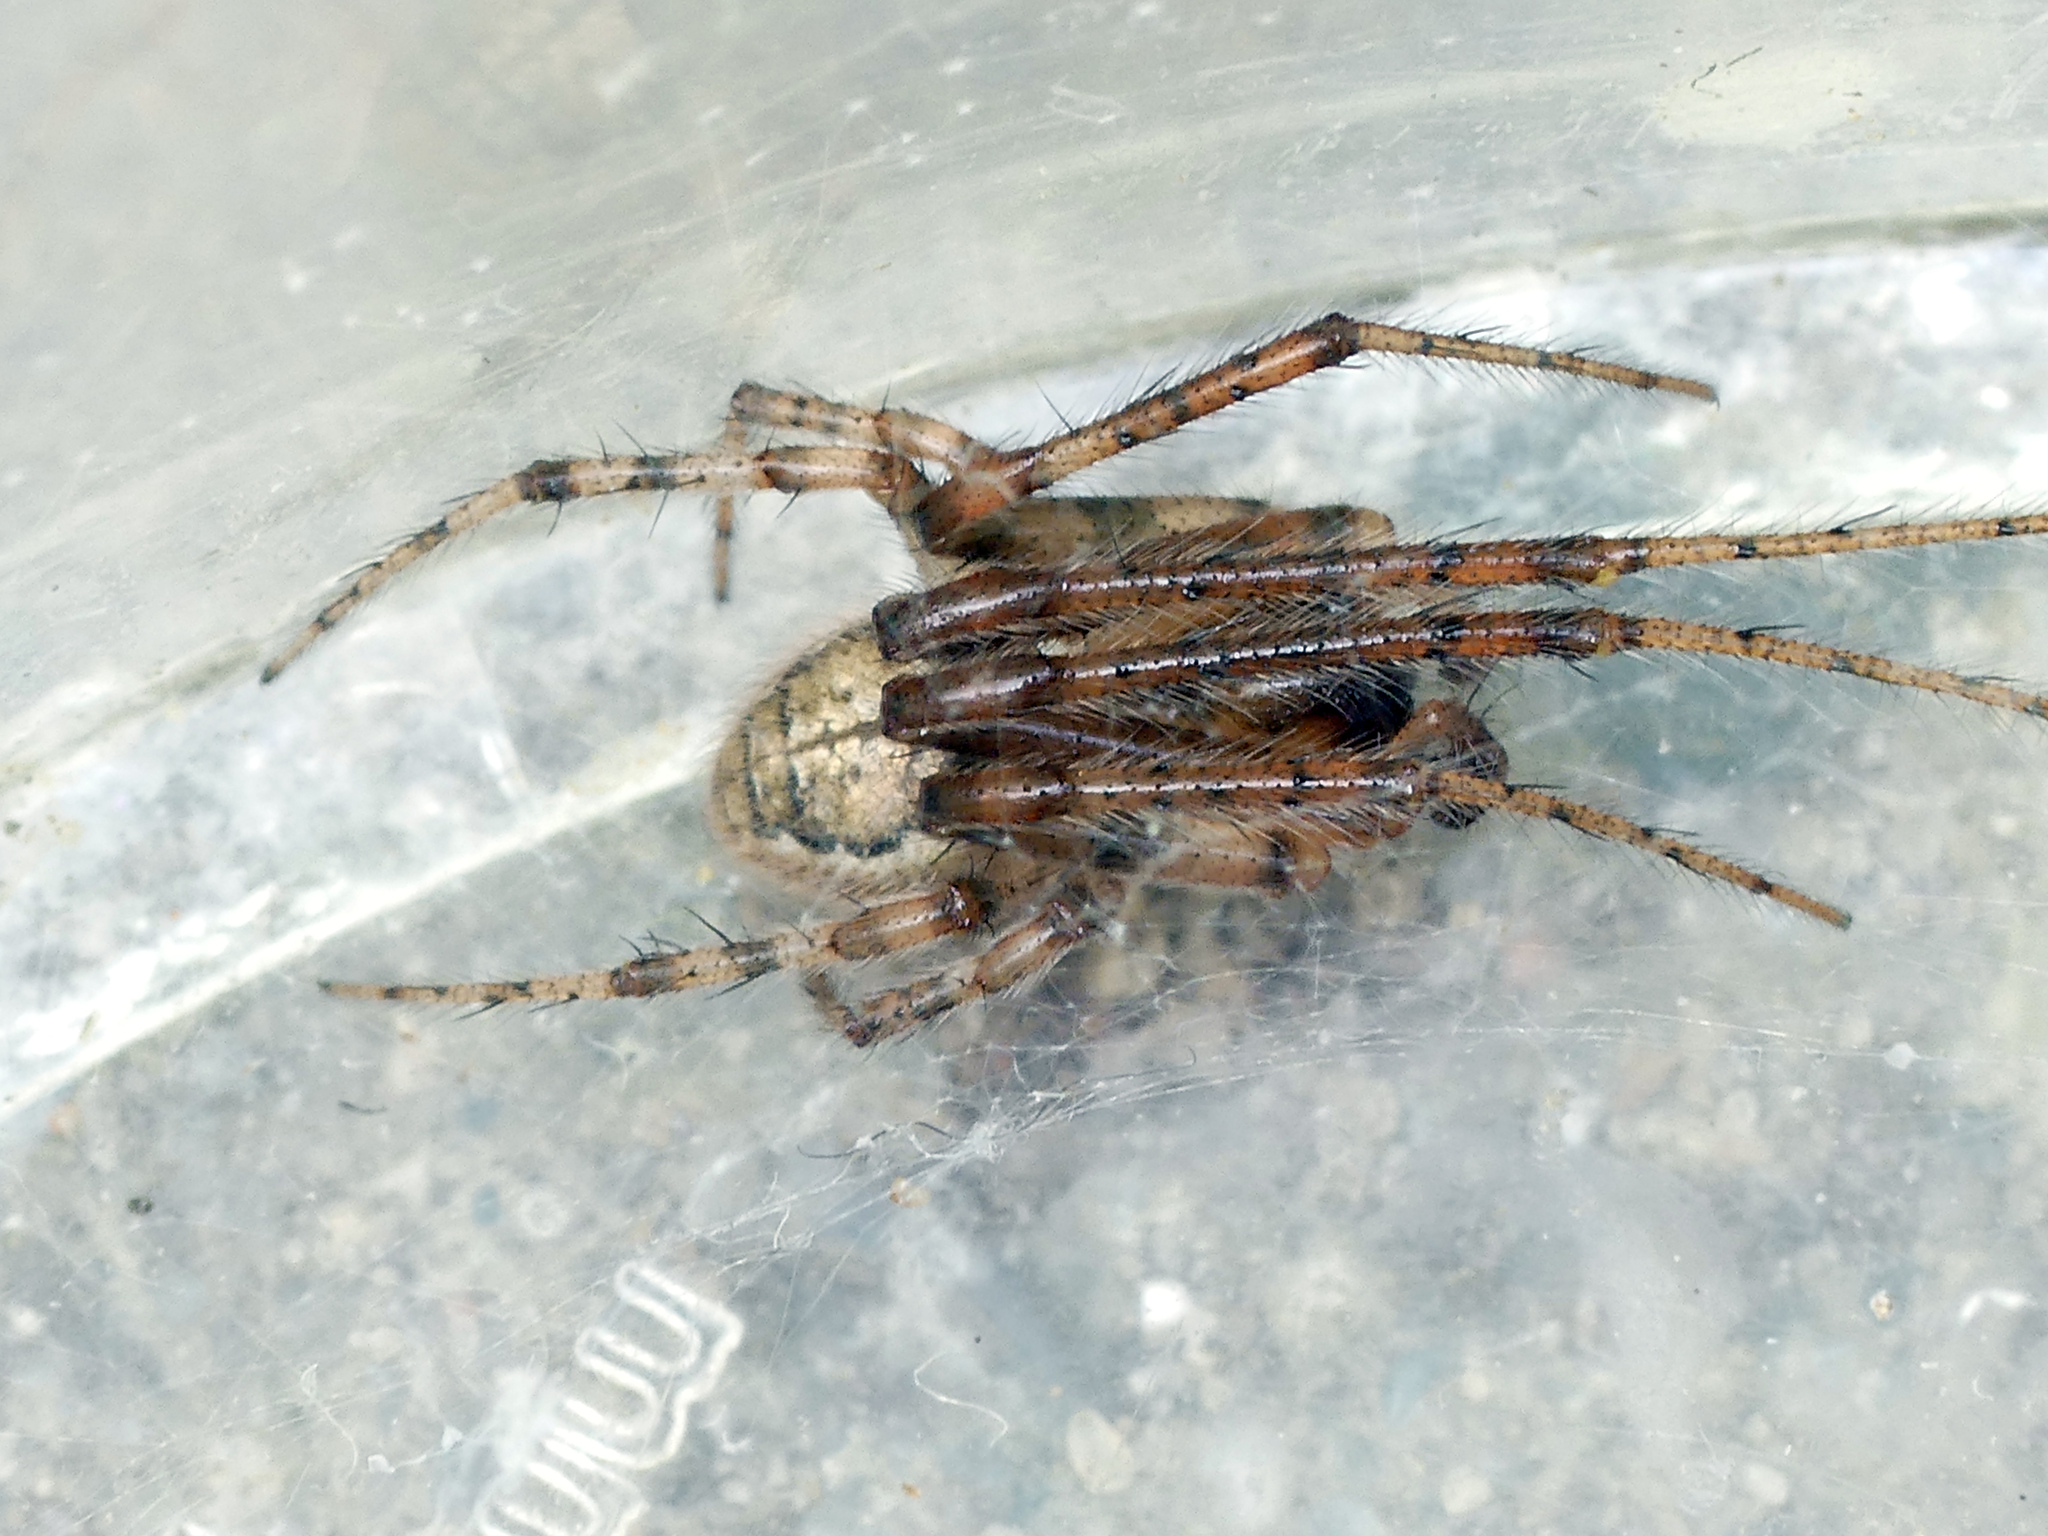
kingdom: Animalia
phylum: Arthropoda
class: Arachnida
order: Araneae
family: Araneidae
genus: Zygiella
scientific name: Zygiella x-notata
